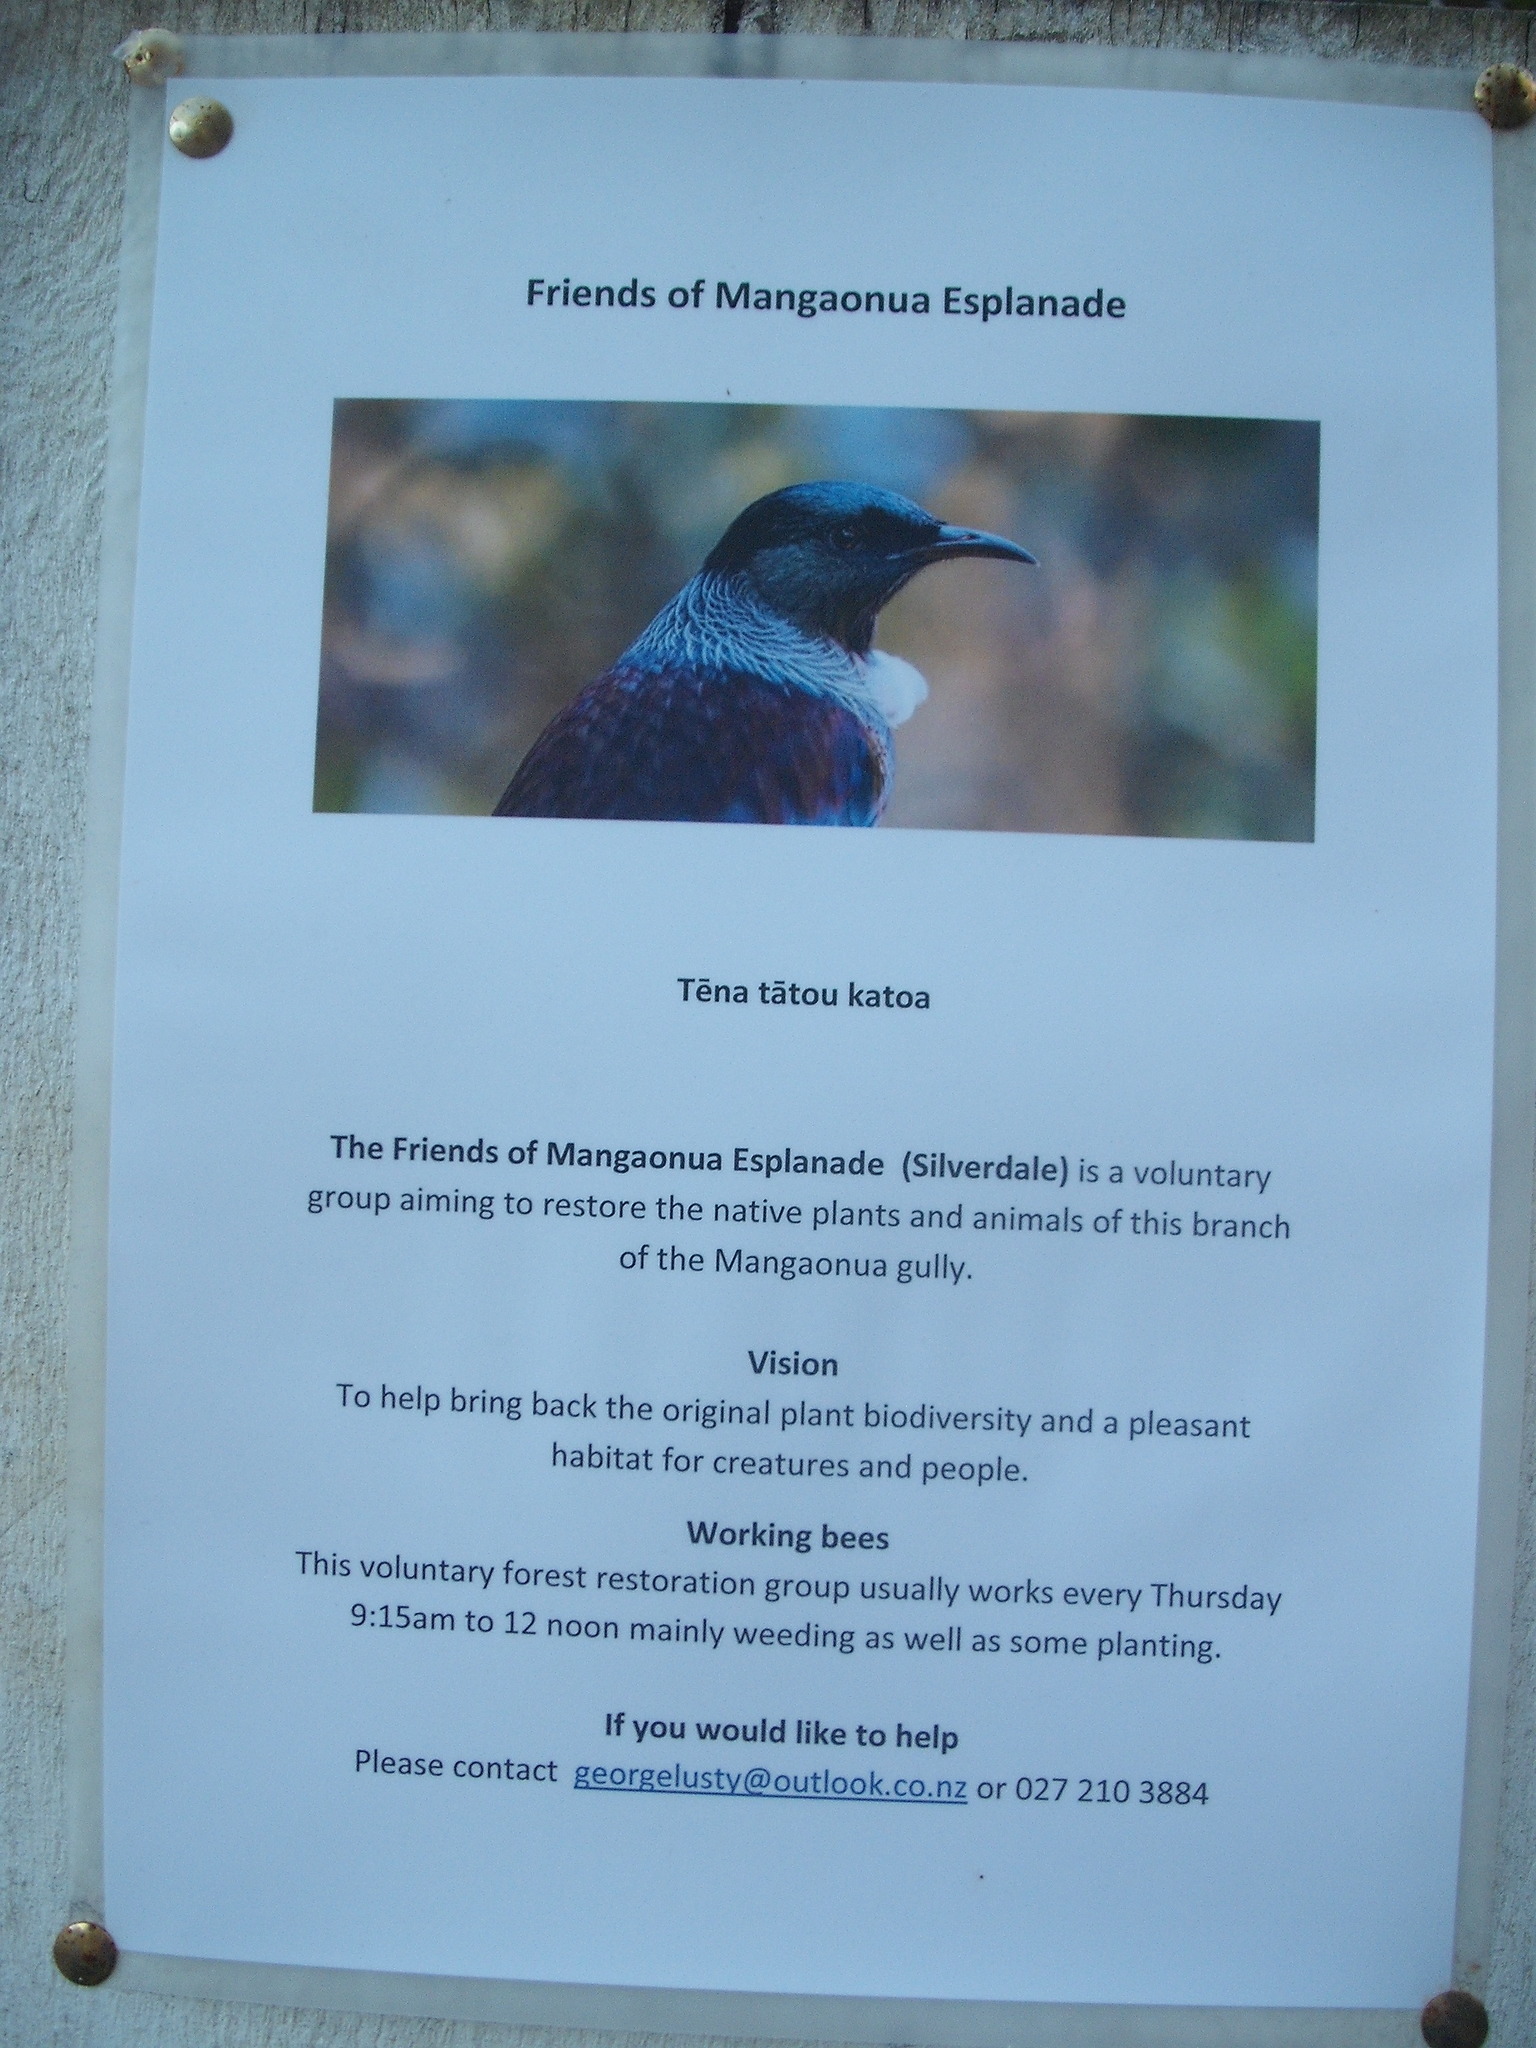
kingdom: Plantae
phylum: Marchantiophyta
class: Marchantiopsida
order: Marchantiales
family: Marchantiaceae
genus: Marchantia
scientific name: Marchantia berteroana
